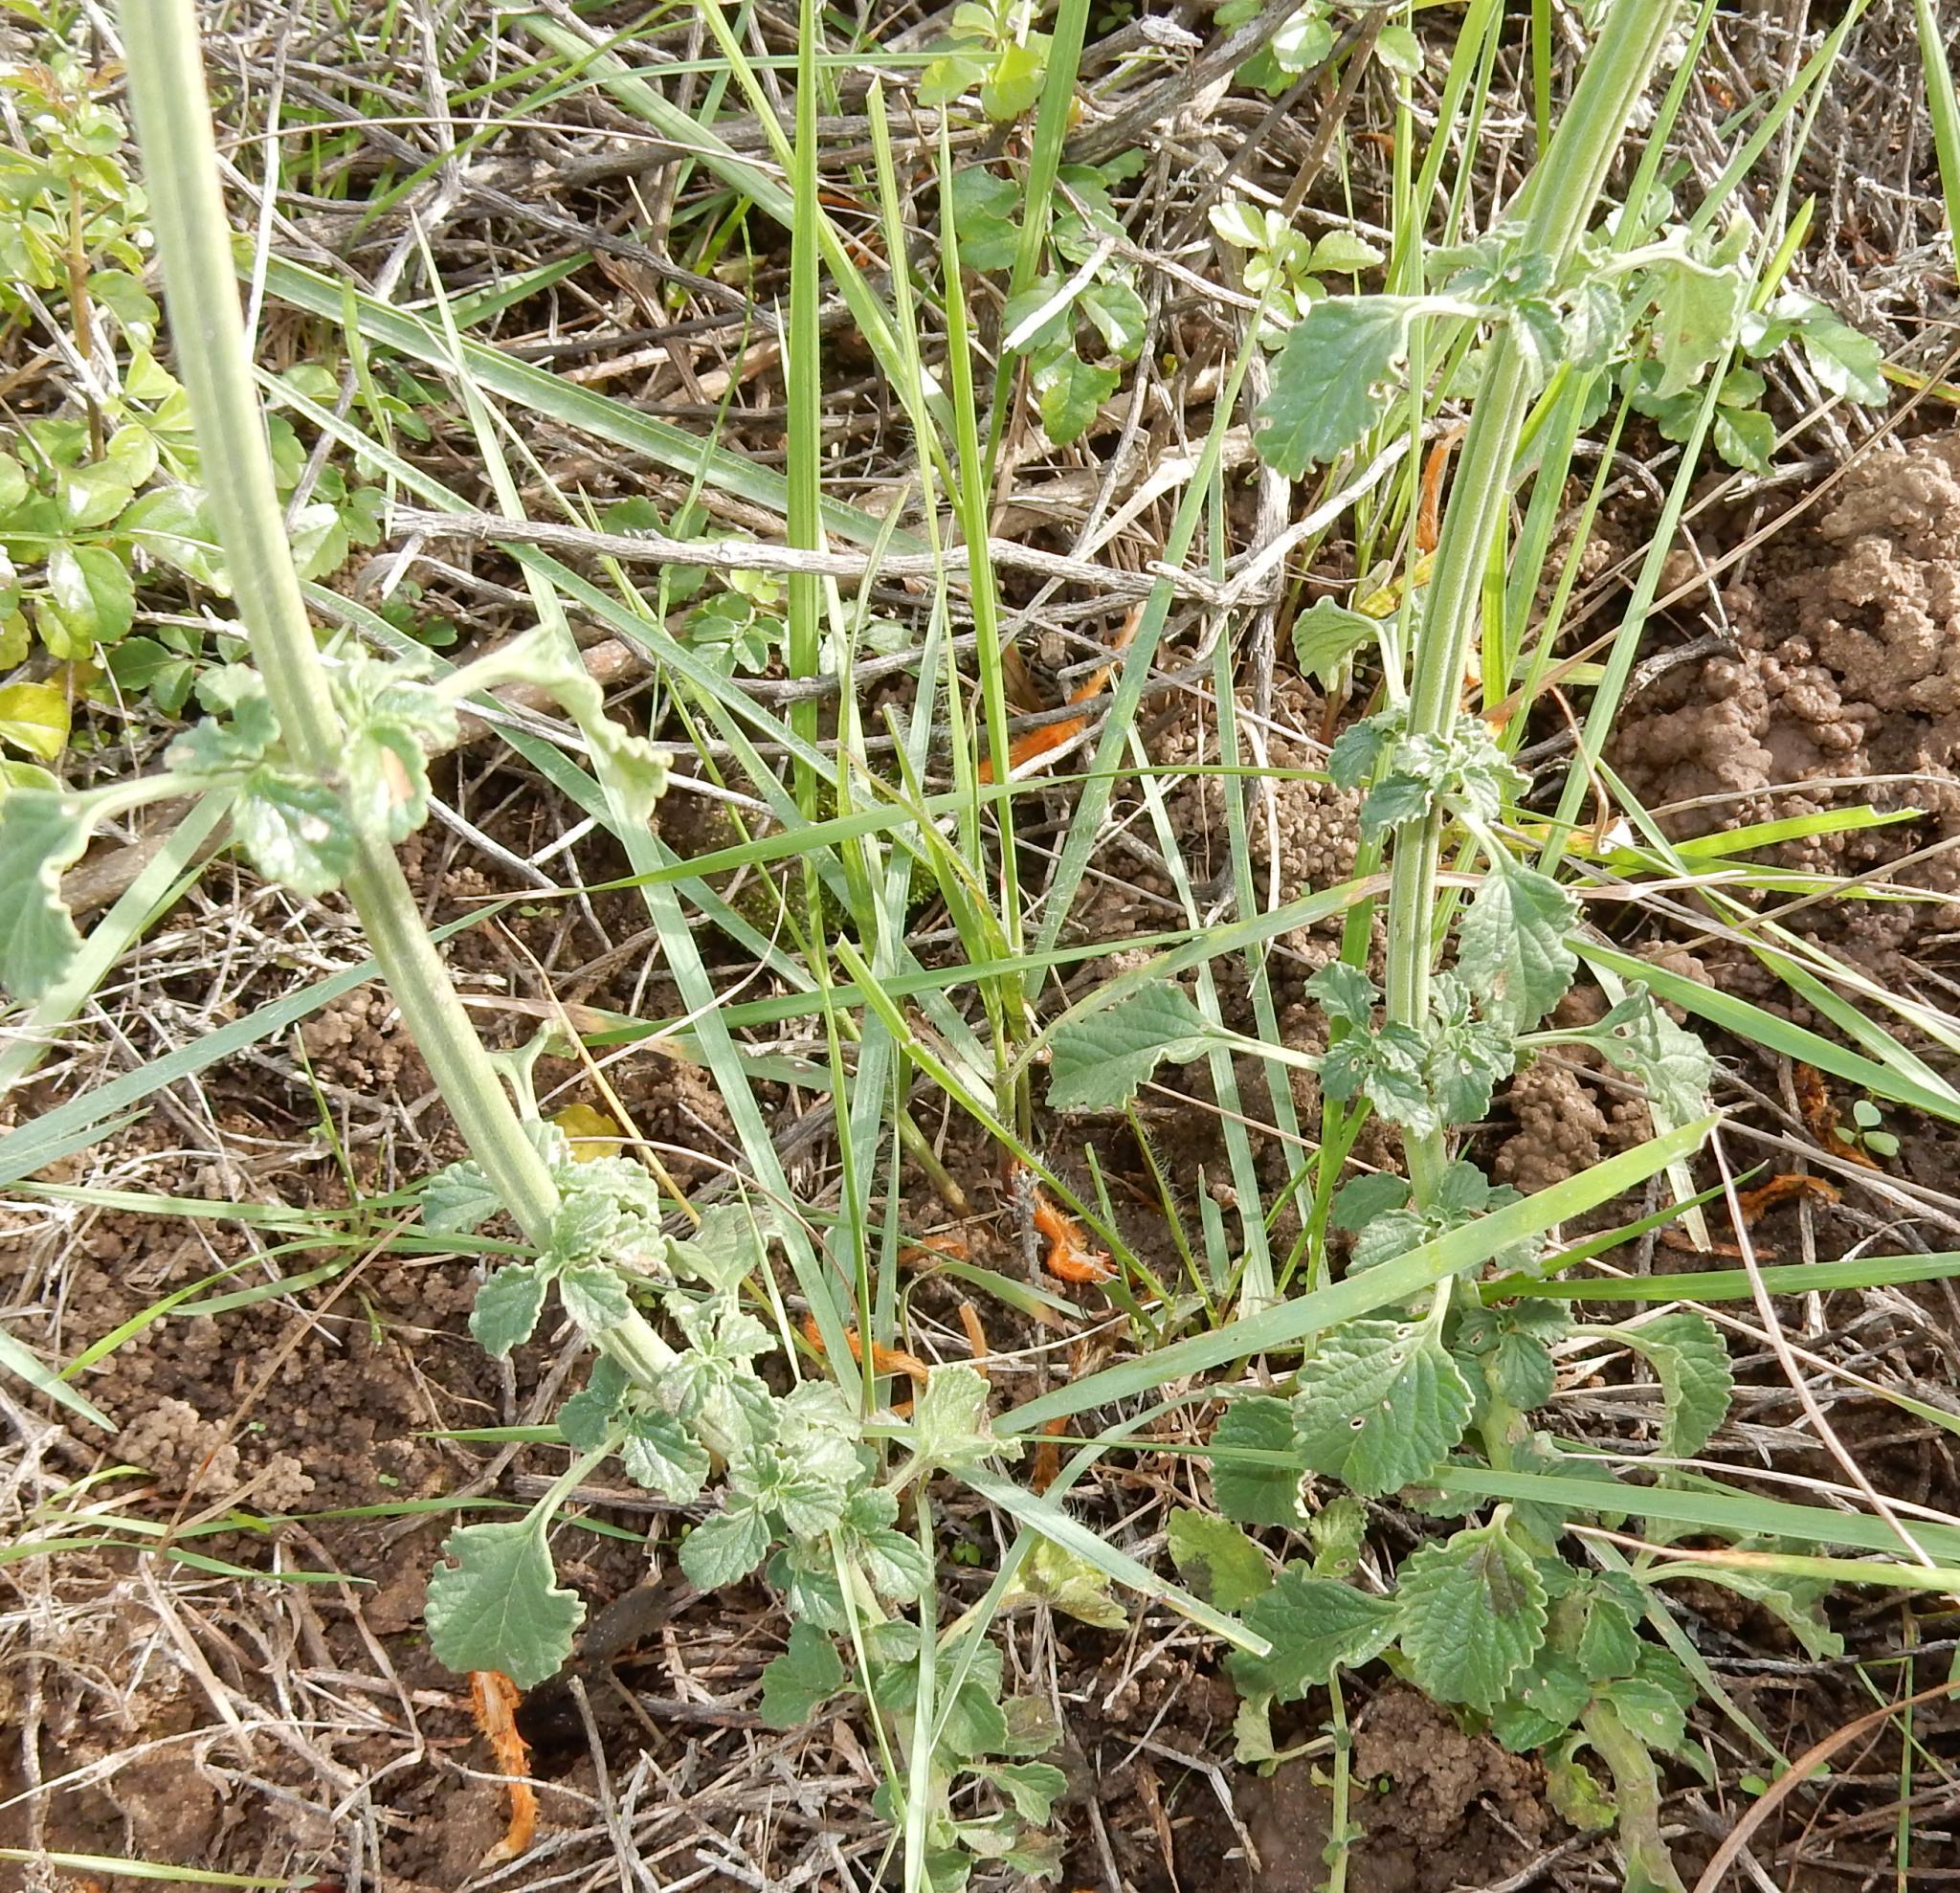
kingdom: Plantae
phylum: Tracheophyta
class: Magnoliopsida
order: Lamiales
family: Lamiaceae
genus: Leonotis
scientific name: Leonotis ocymifolia
